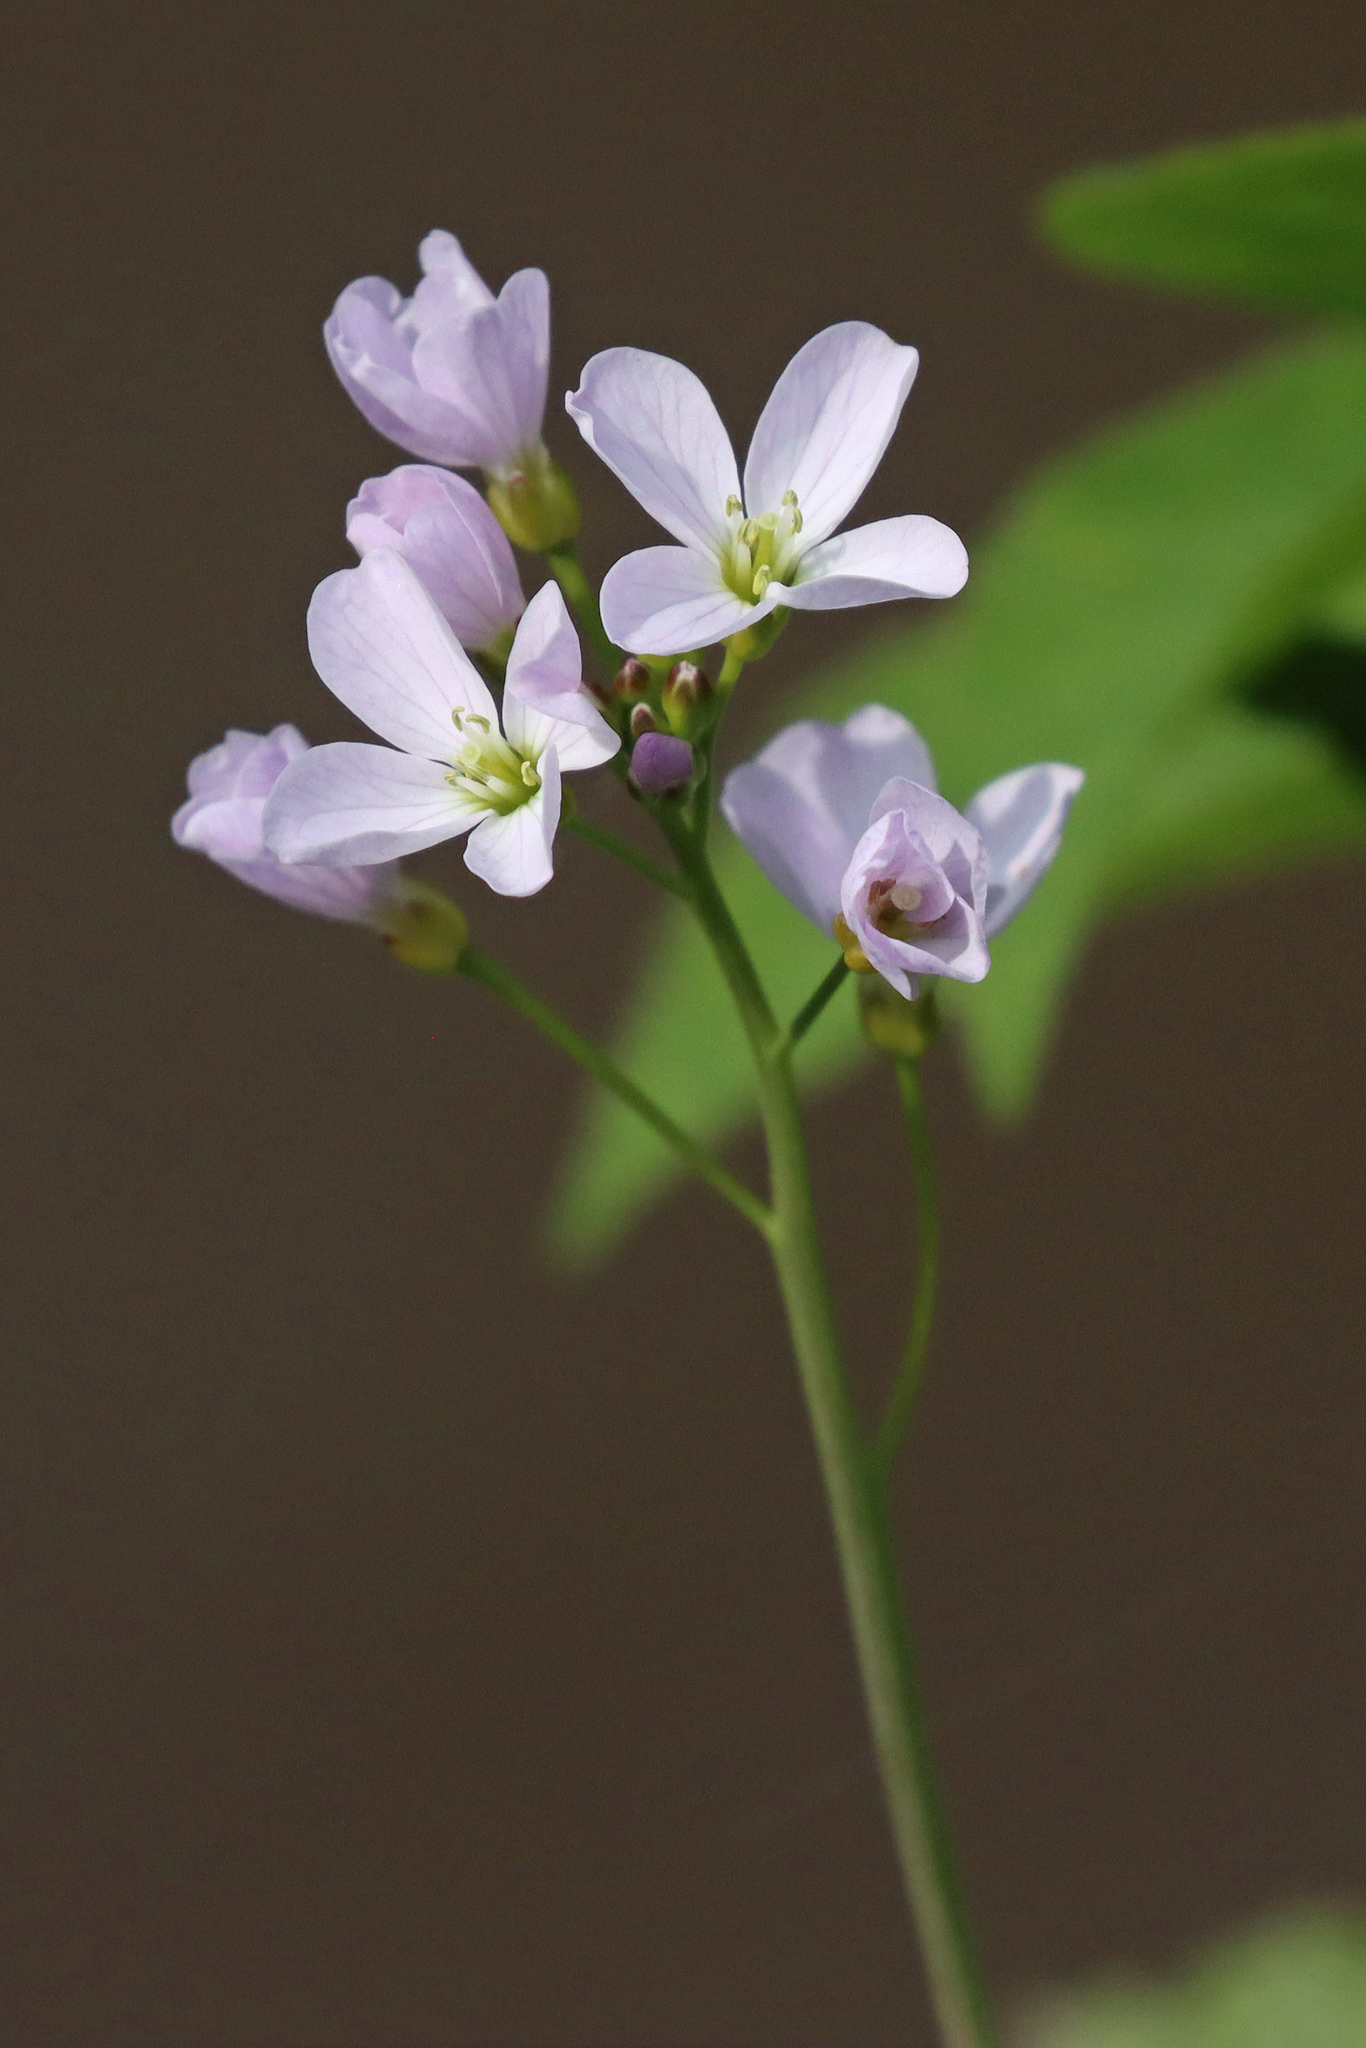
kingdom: Plantae
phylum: Tracheophyta
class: Magnoliopsida
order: Brassicales
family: Brassicaceae
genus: Cardamine
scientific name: Cardamine pratensis
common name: Cuckoo flower
